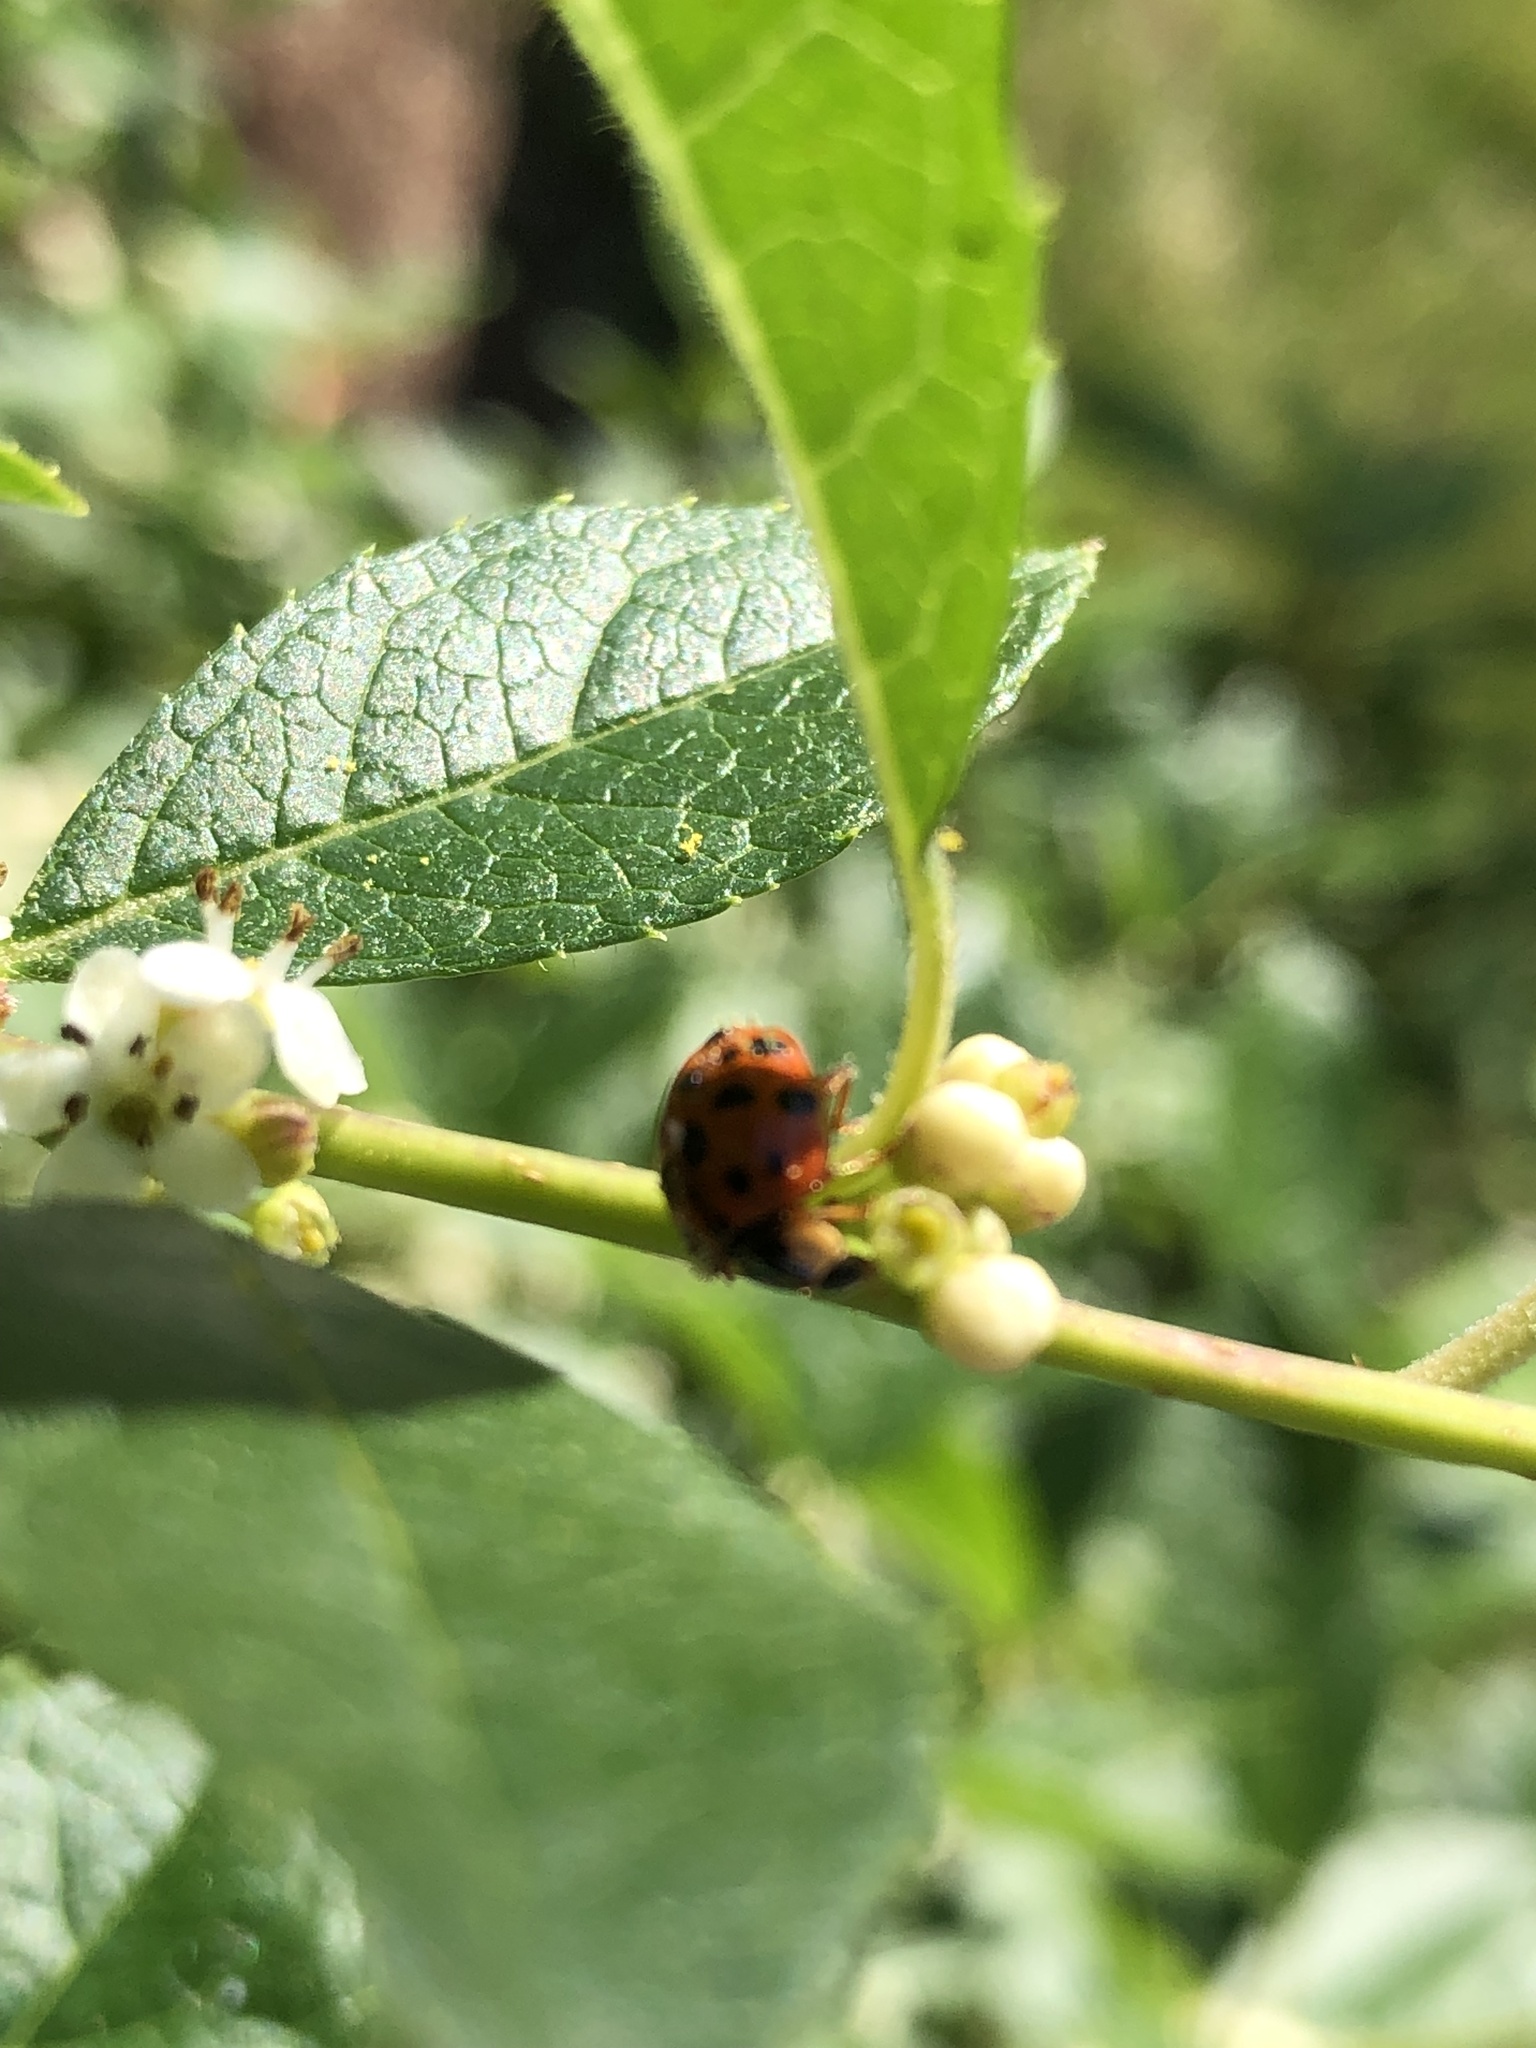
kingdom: Animalia
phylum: Arthropoda
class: Insecta
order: Coleoptera
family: Coccinellidae
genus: Harmonia
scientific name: Harmonia axyridis
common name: Harlequin ladybird
